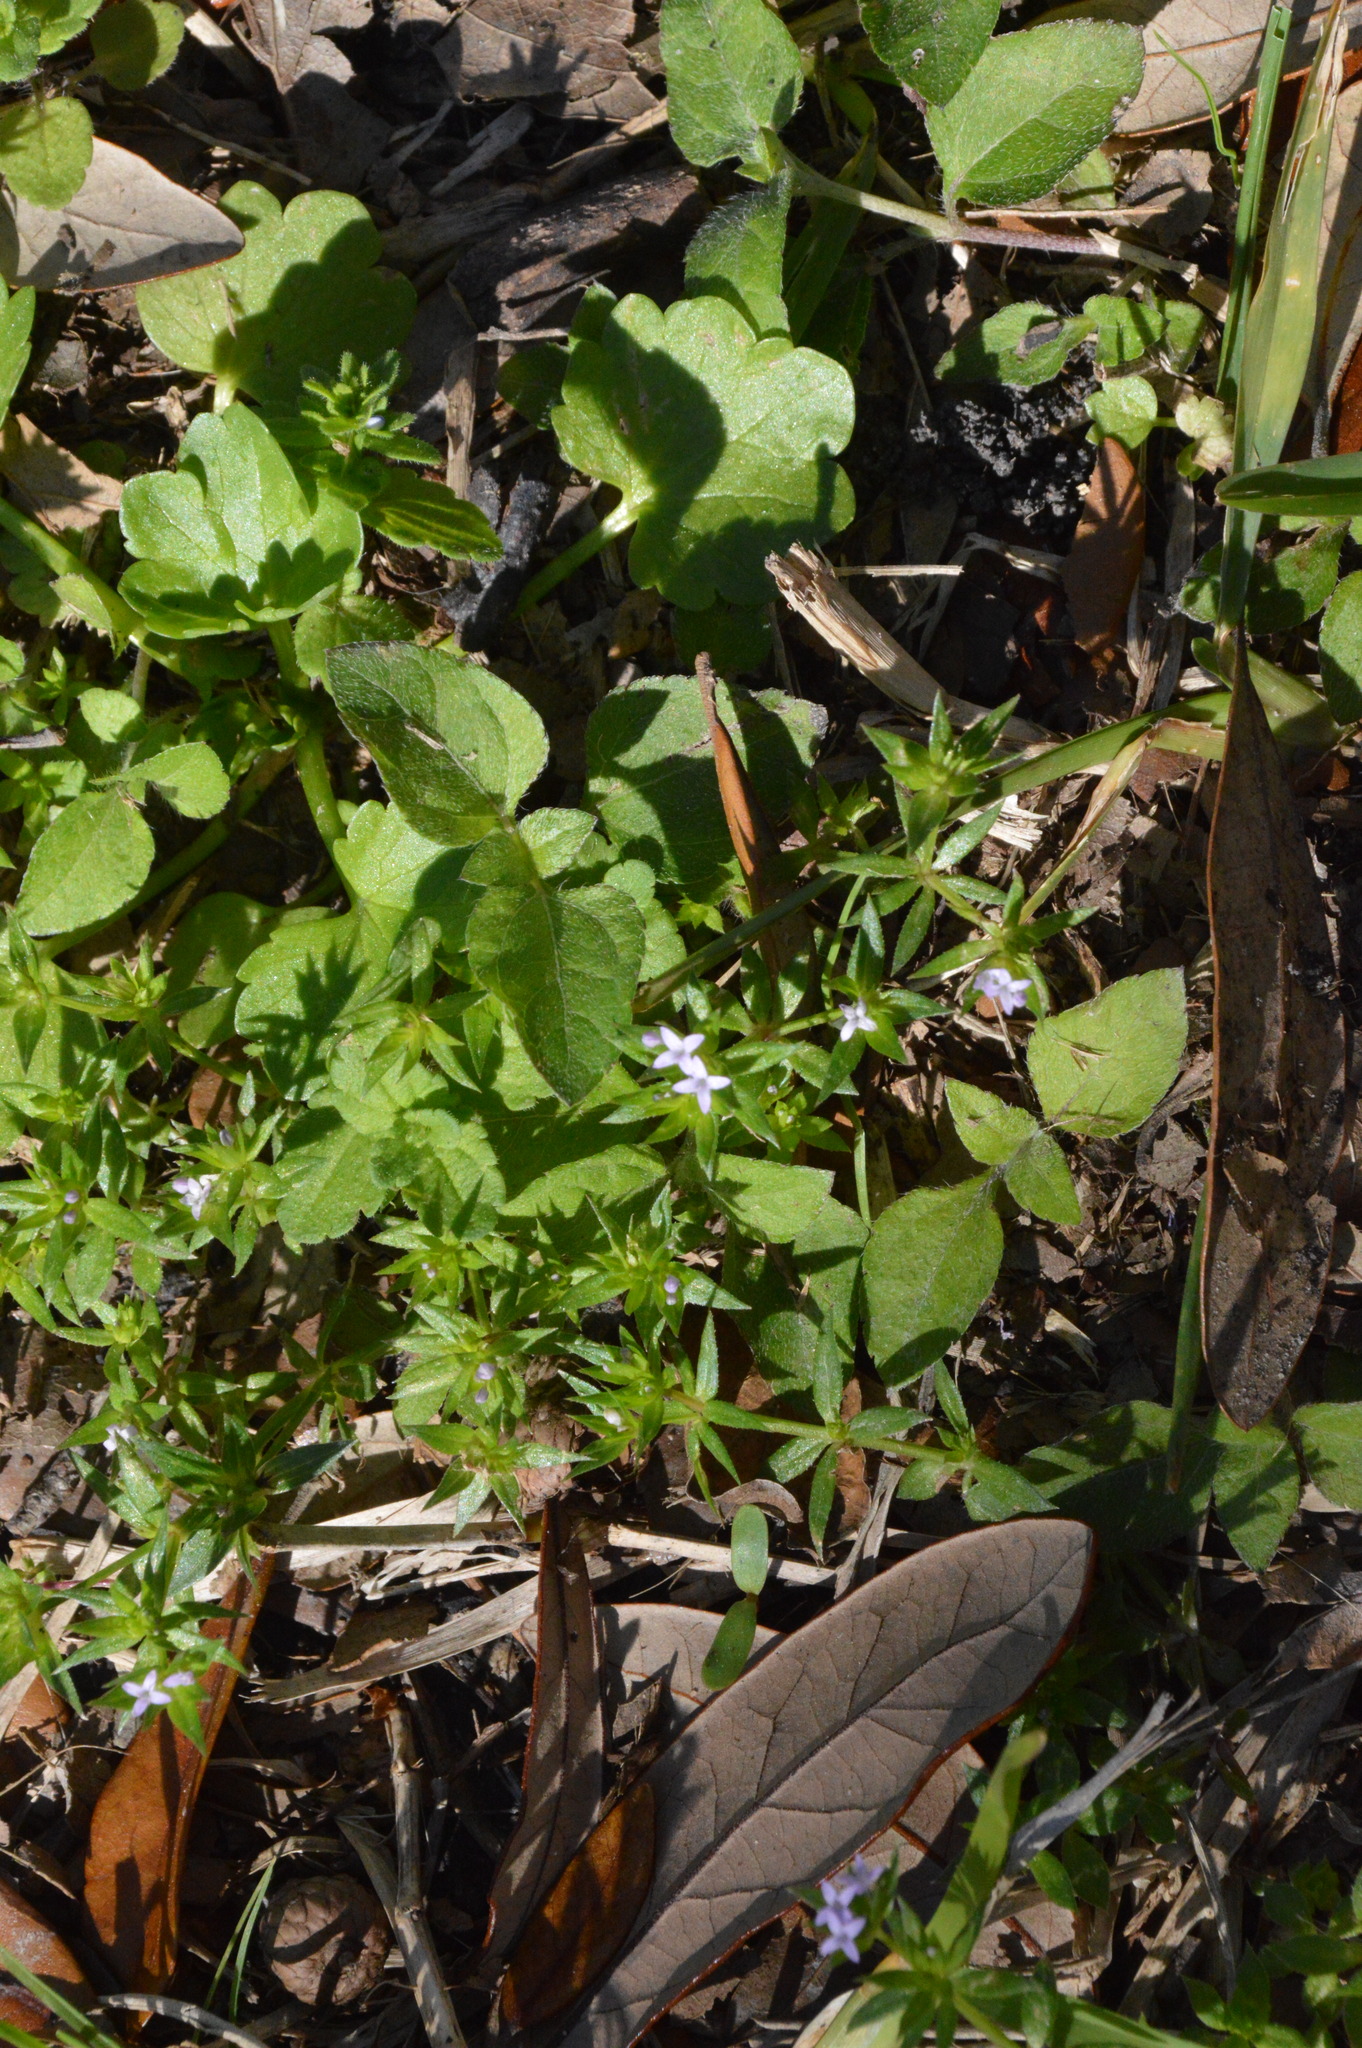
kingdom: Plantae
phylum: Tracheophyta
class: Magnoliopsida
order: Gentianales
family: Rubiaceae
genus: Sherardia
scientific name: Sherardia arvensis
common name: Field madder
